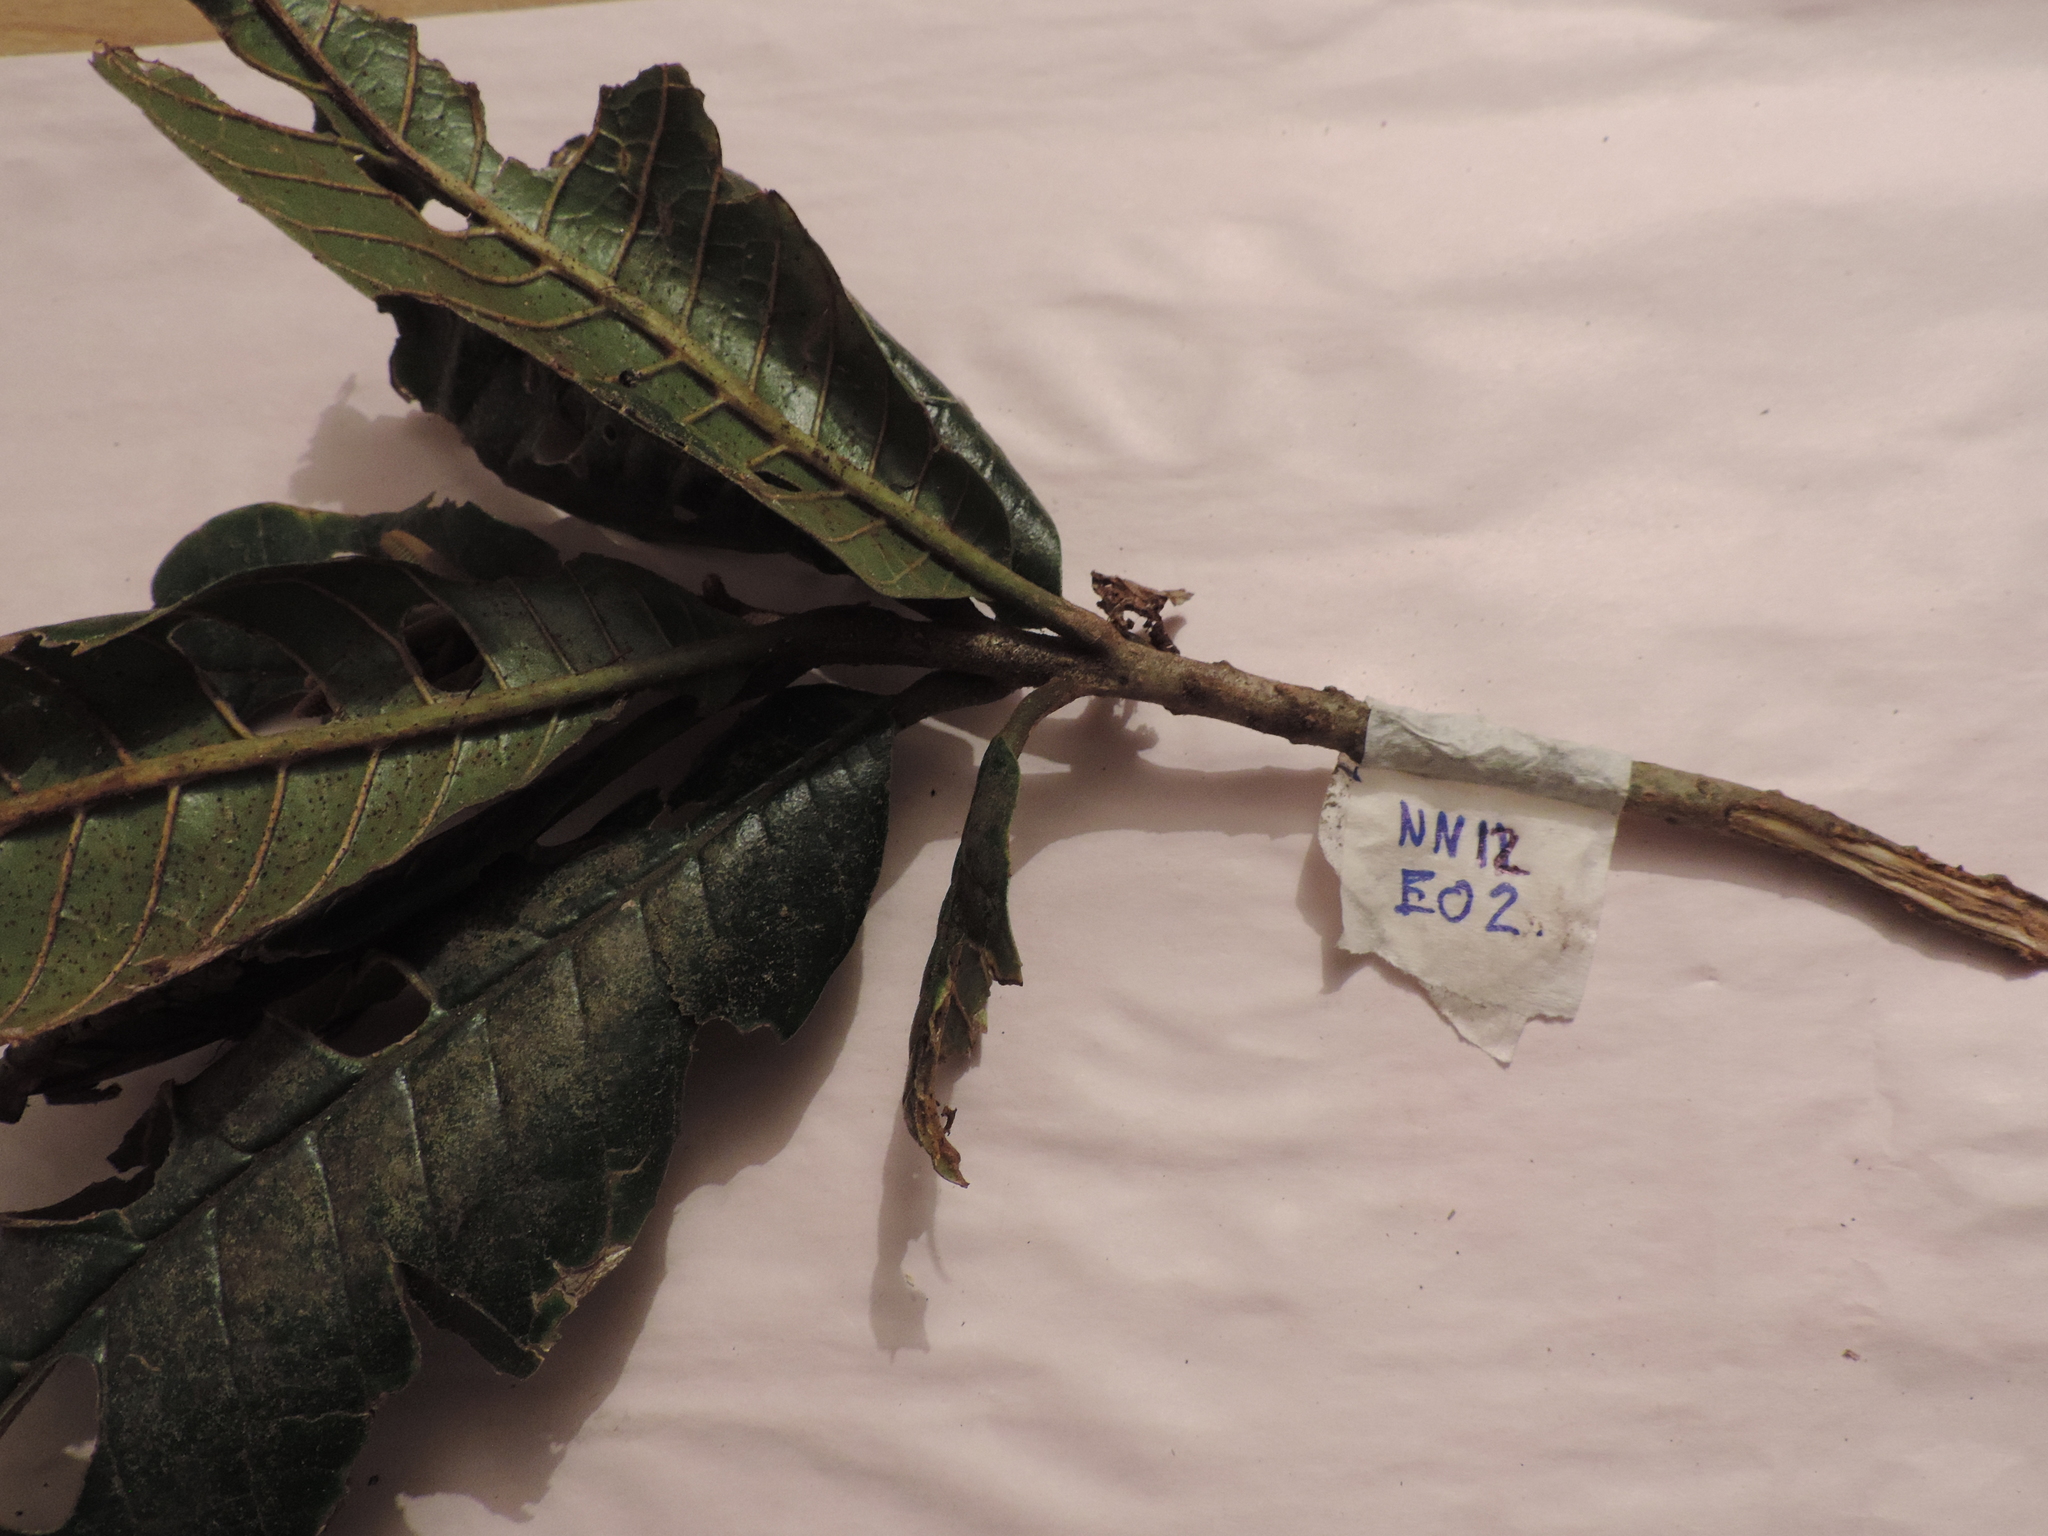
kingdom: Plantae
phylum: Tracheophyta
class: Magnoliopsida
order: Proteales
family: Sabiaceae
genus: Meliosma
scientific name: Meliosma frondosa
